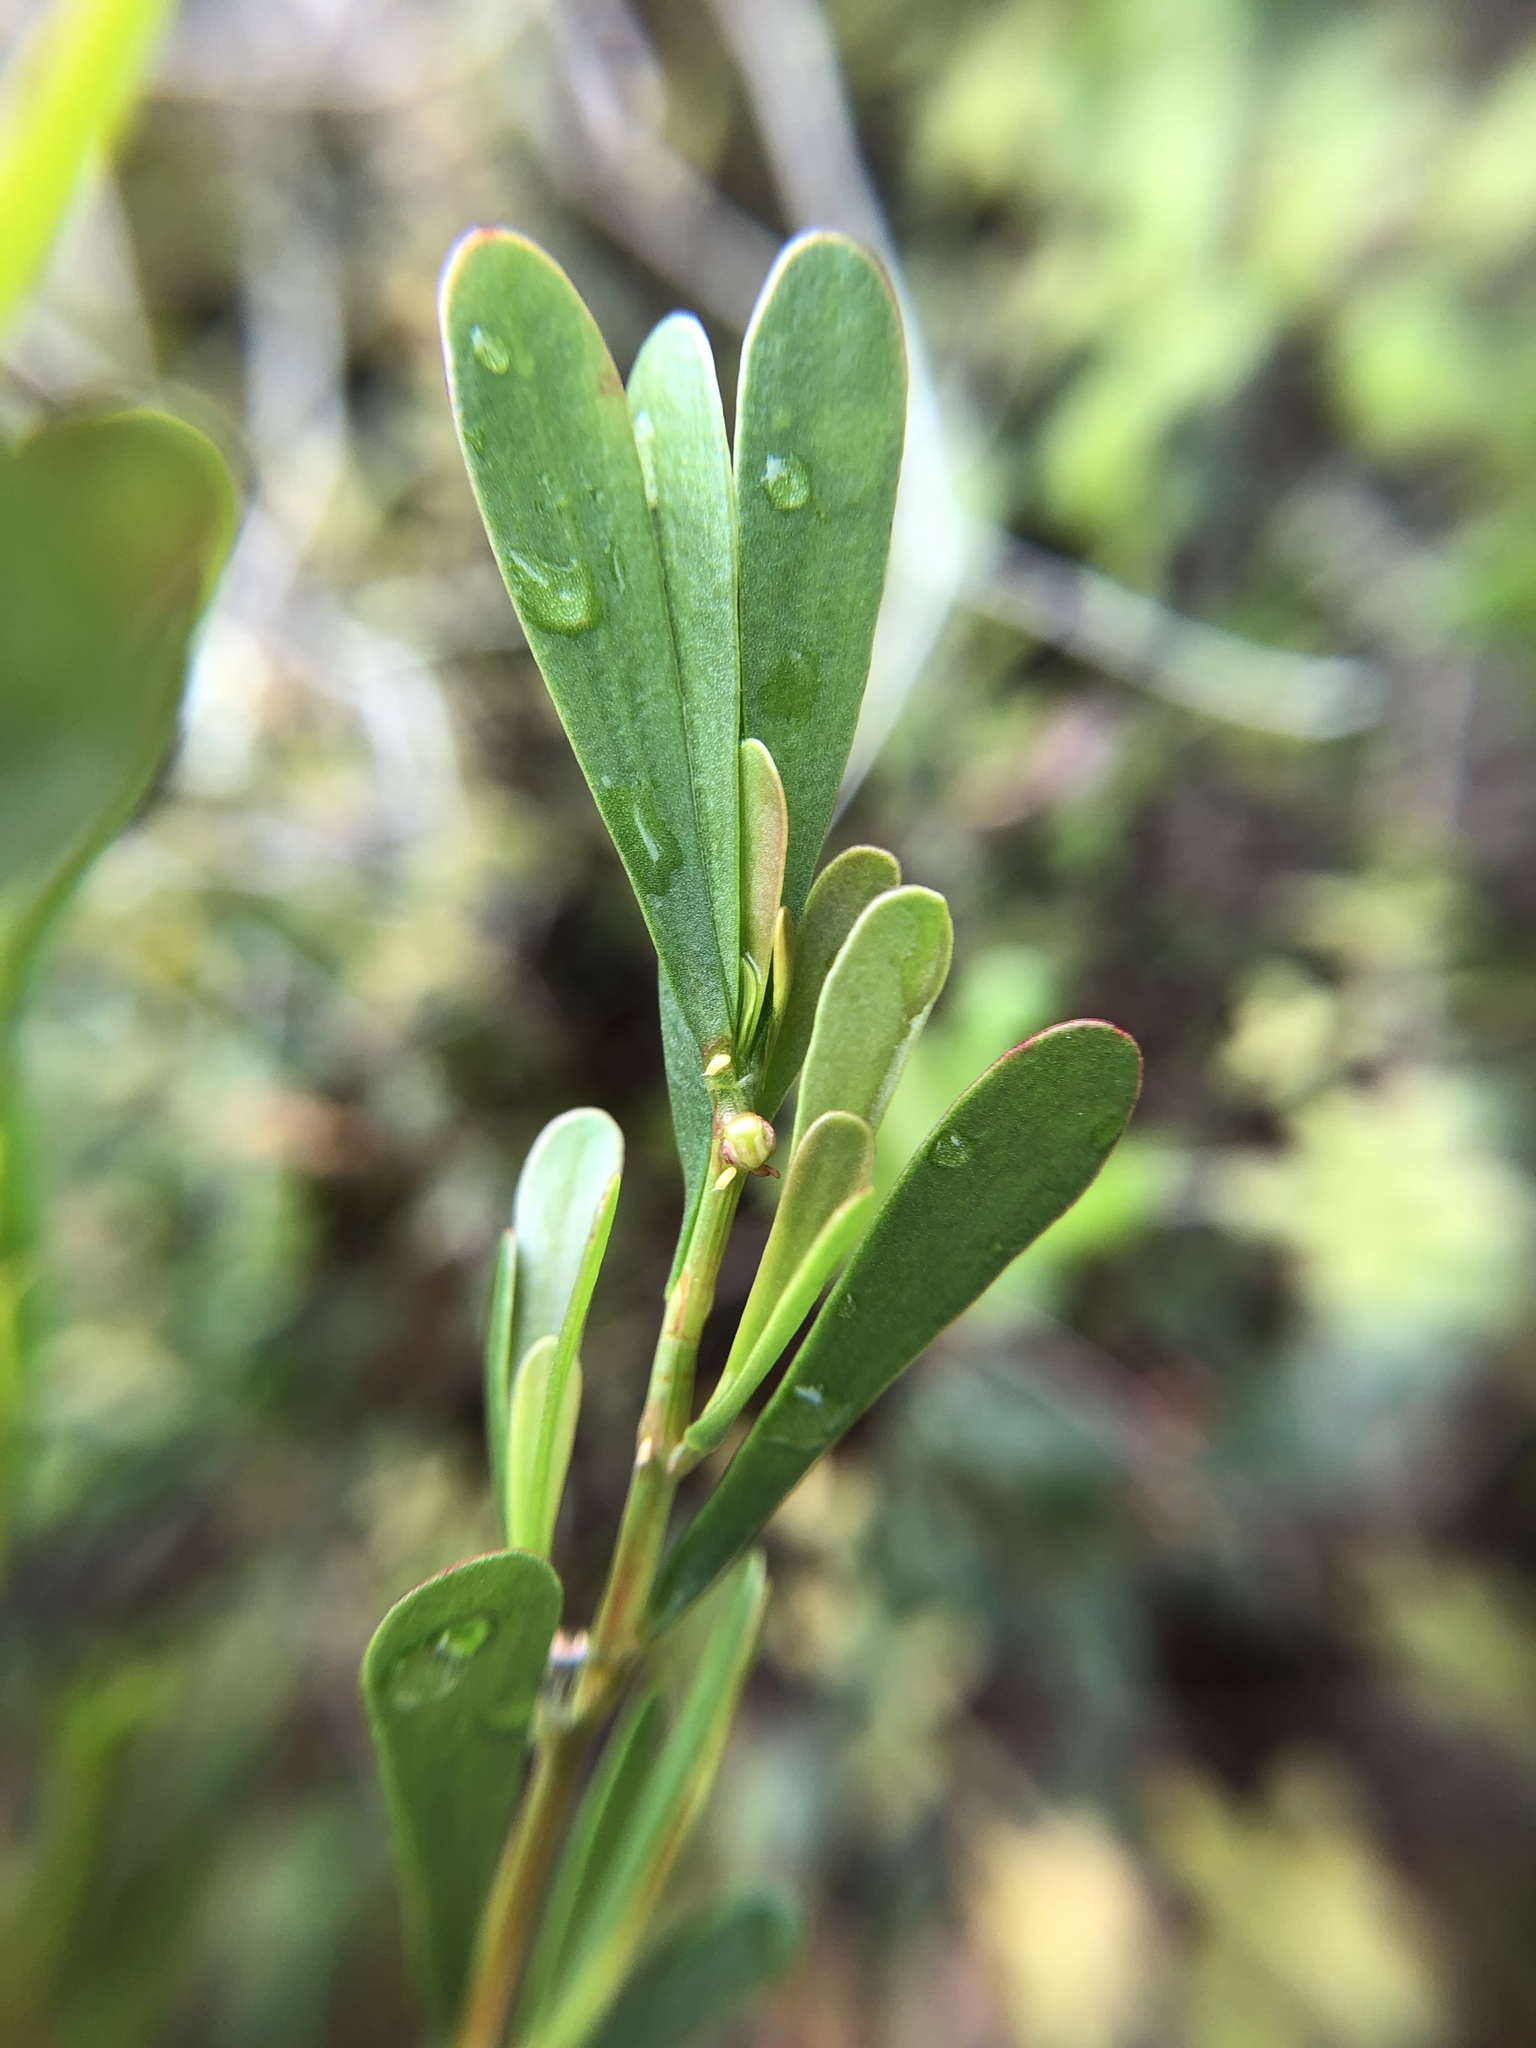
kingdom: Plantae
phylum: Tracheophyta
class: Magnoliopsida
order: Caryophyllales
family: Polygonaceae
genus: Polygonella
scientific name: Polygonella polygama
